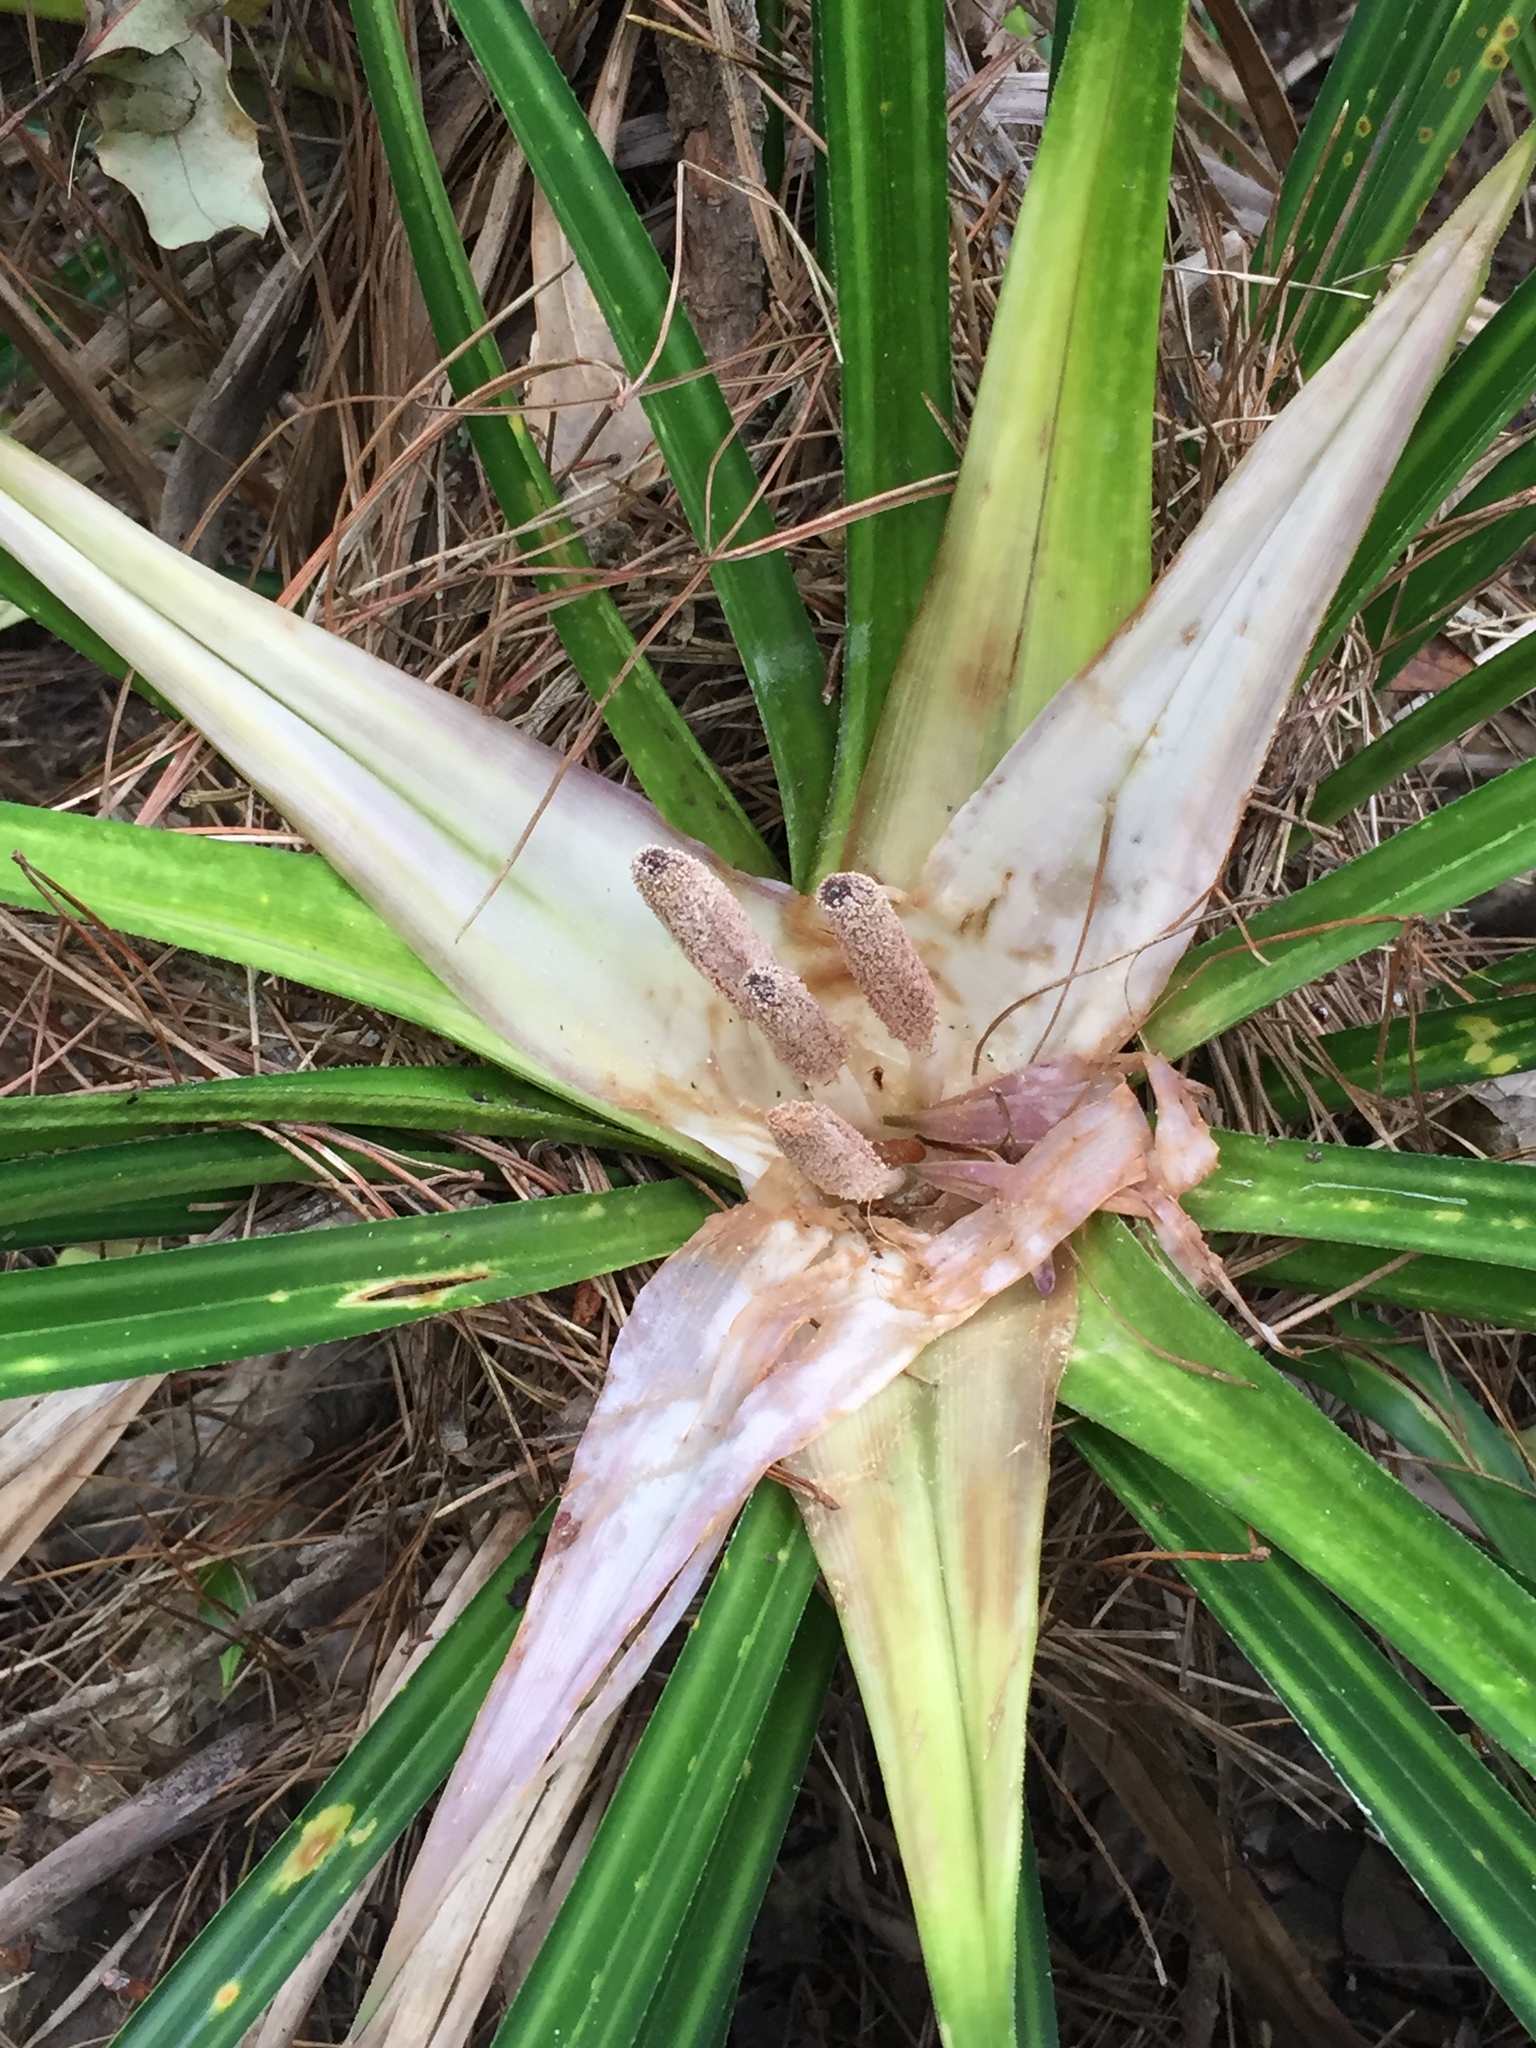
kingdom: Plantae
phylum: Tracheophyta
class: Liliopsida
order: Pandanales
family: Pandanaceae
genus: Freycinetia
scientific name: Freycinetia banksii
